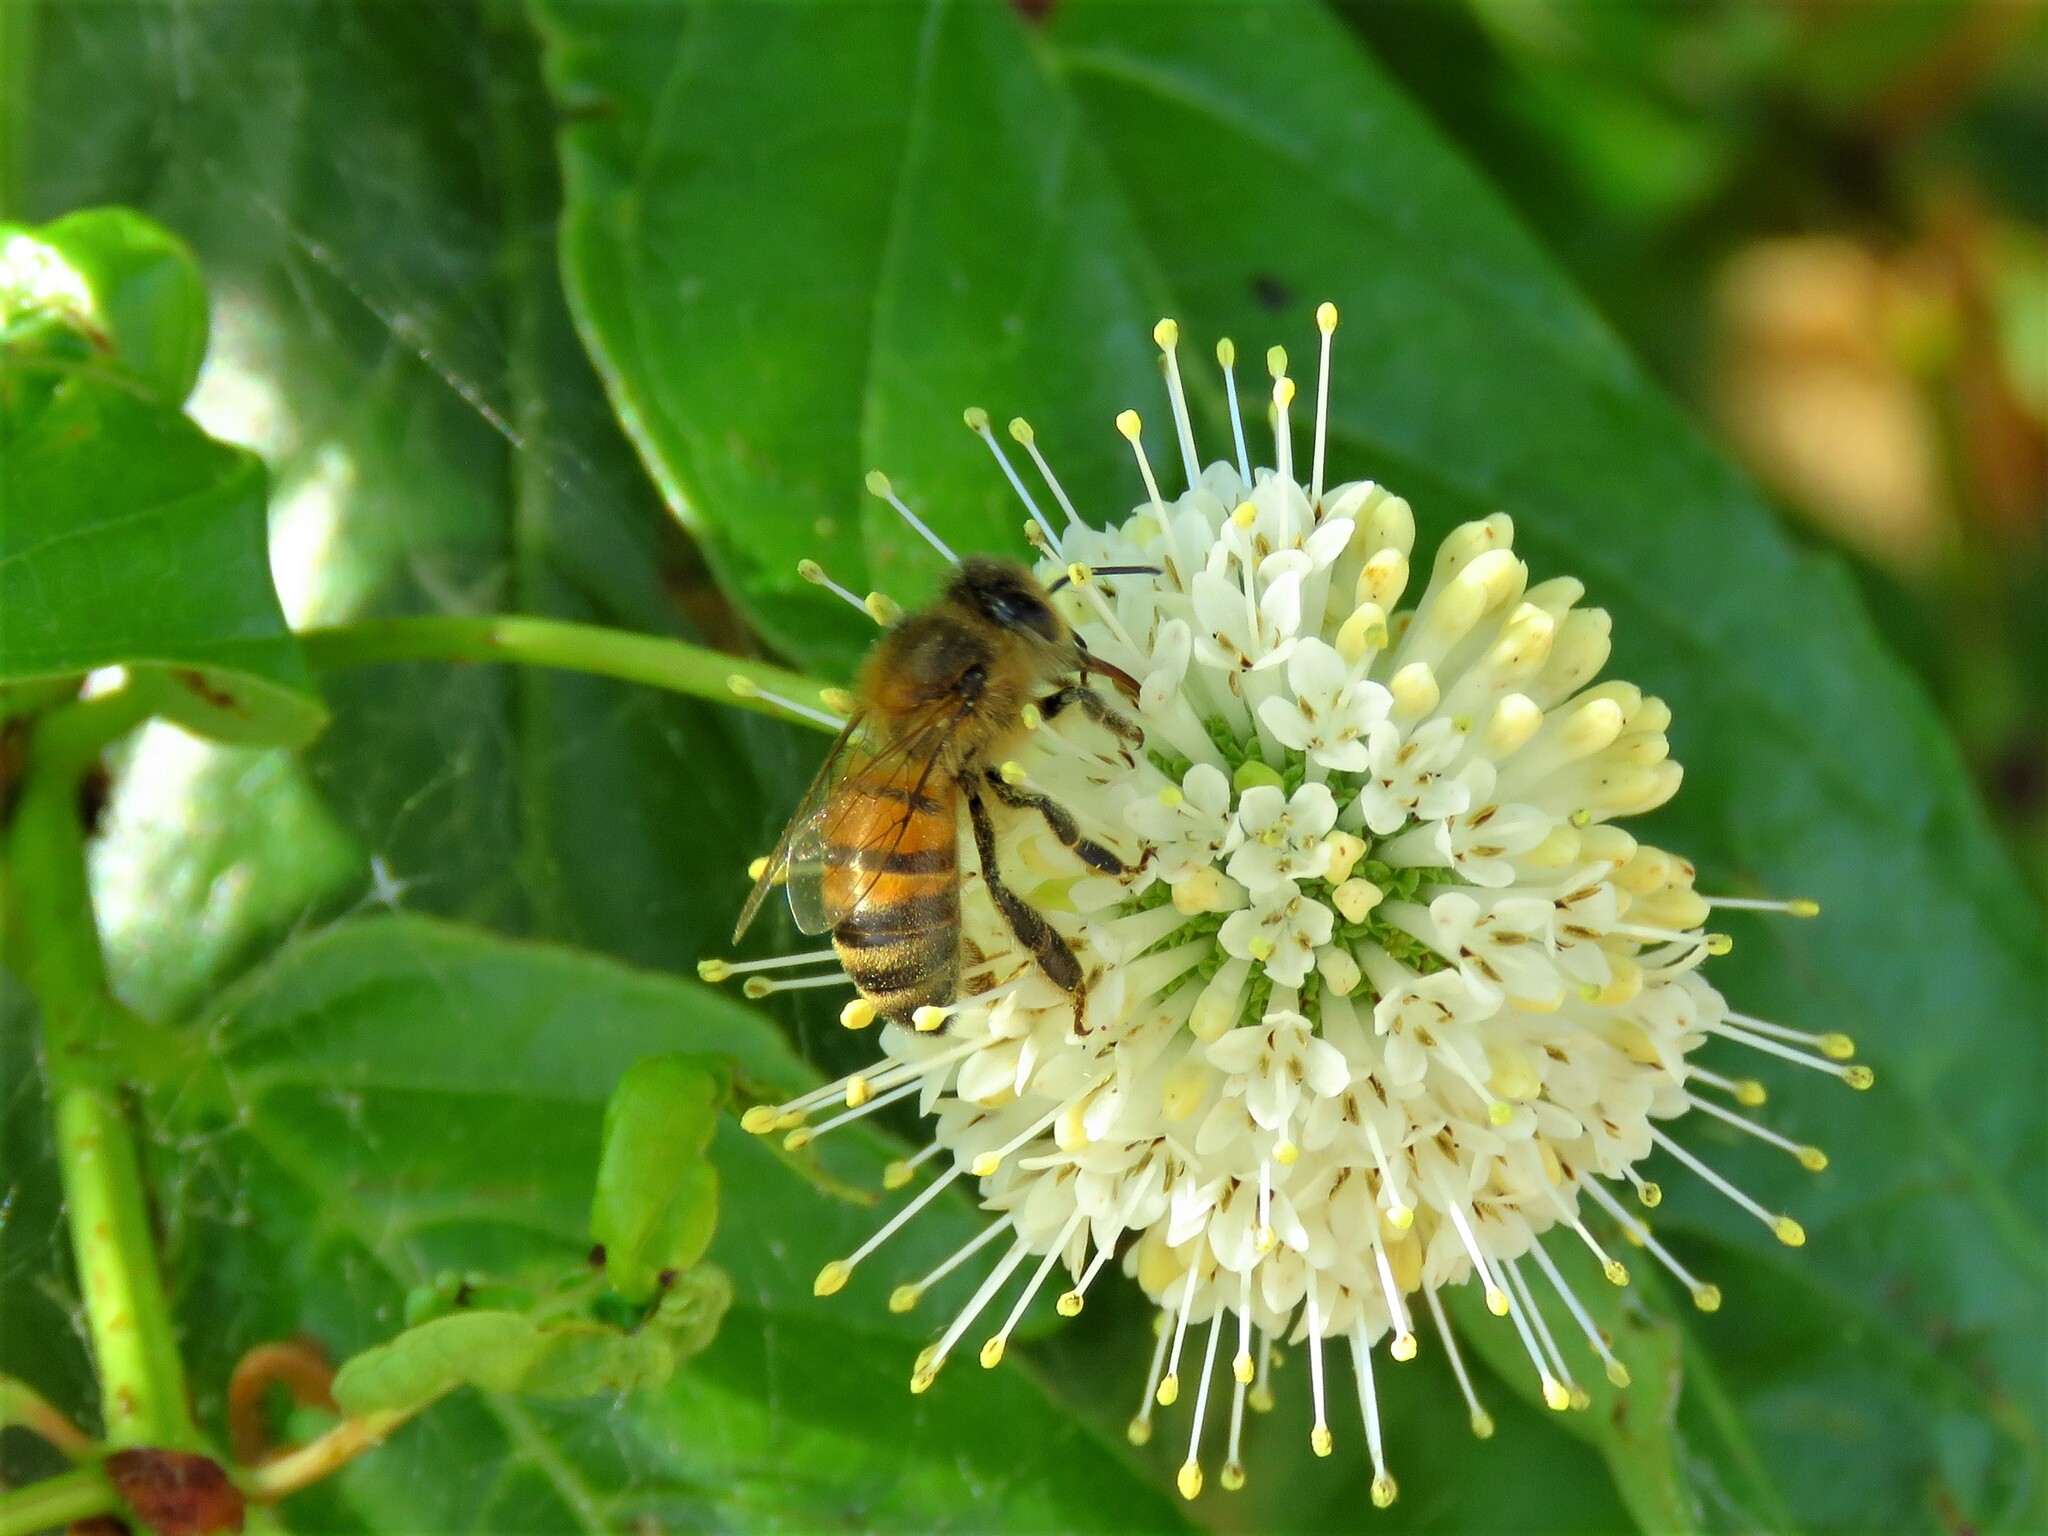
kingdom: Animalia
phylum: Arthropoda
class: Insecta
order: Hymenoptera
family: Apidae
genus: Apis
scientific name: Apis mellifera
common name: Honey bee
